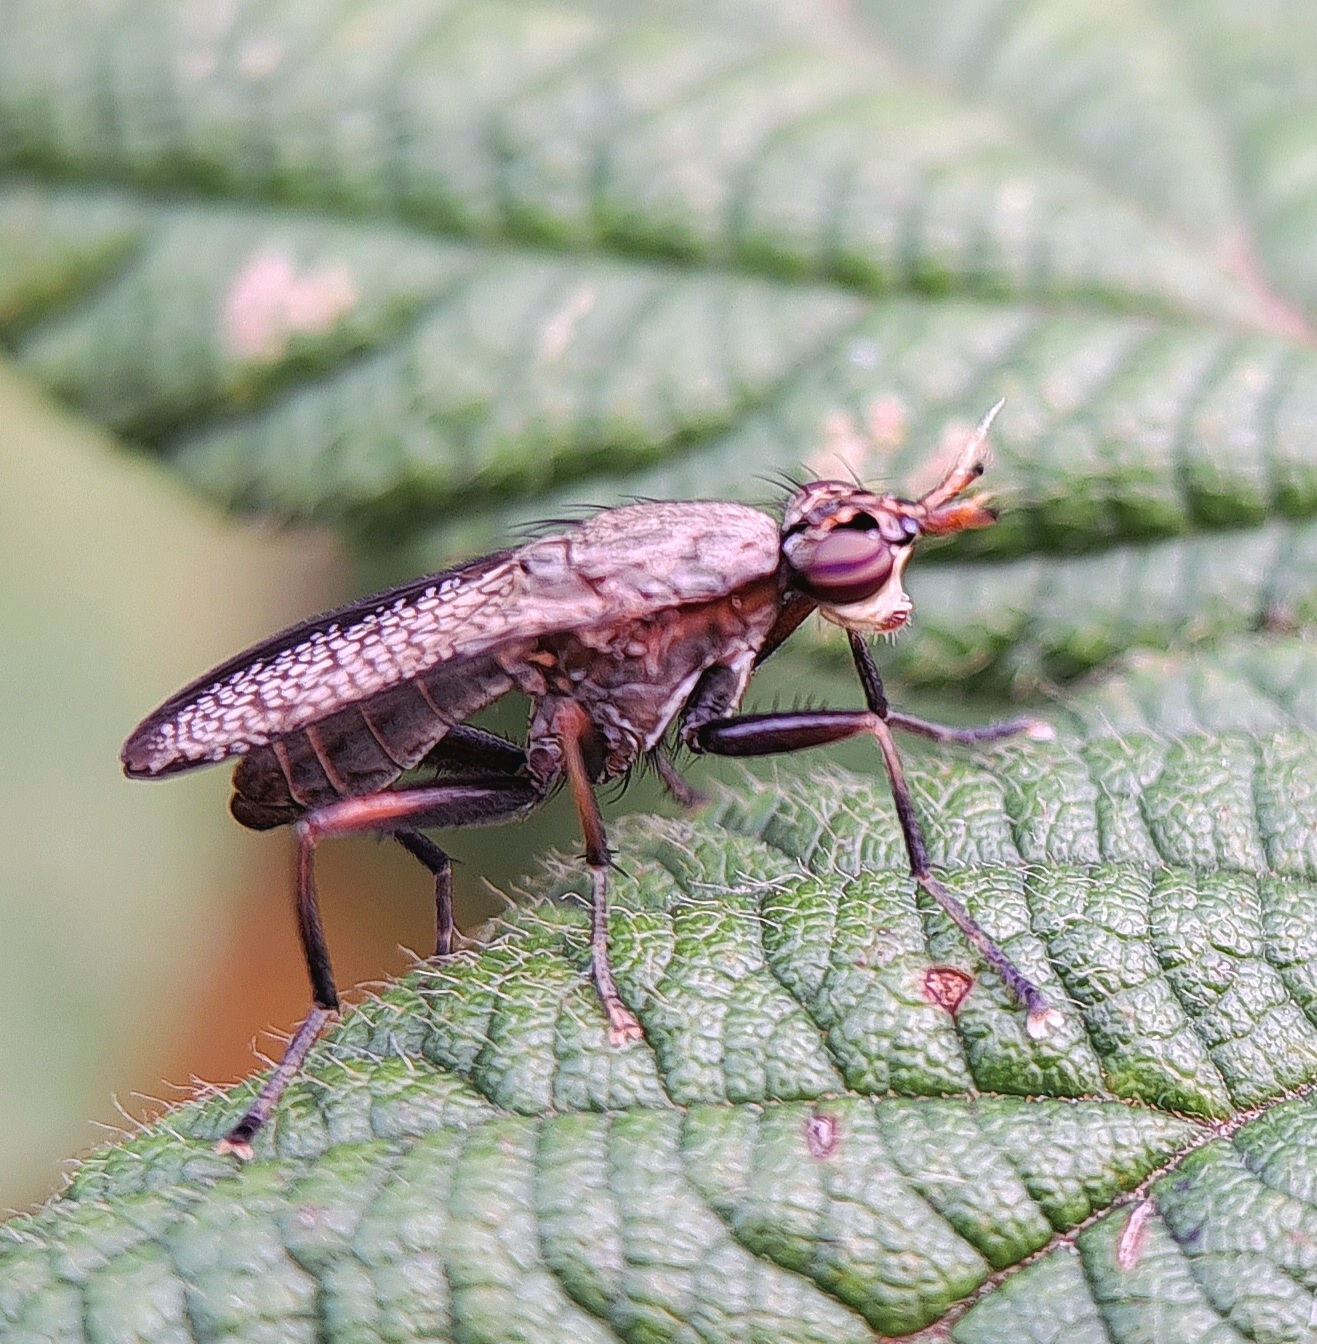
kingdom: Animalia
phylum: Arthropoda
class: Insecta
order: Diptera
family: Sciomyzidae
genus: Coremacera
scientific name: Coremacera marginata
